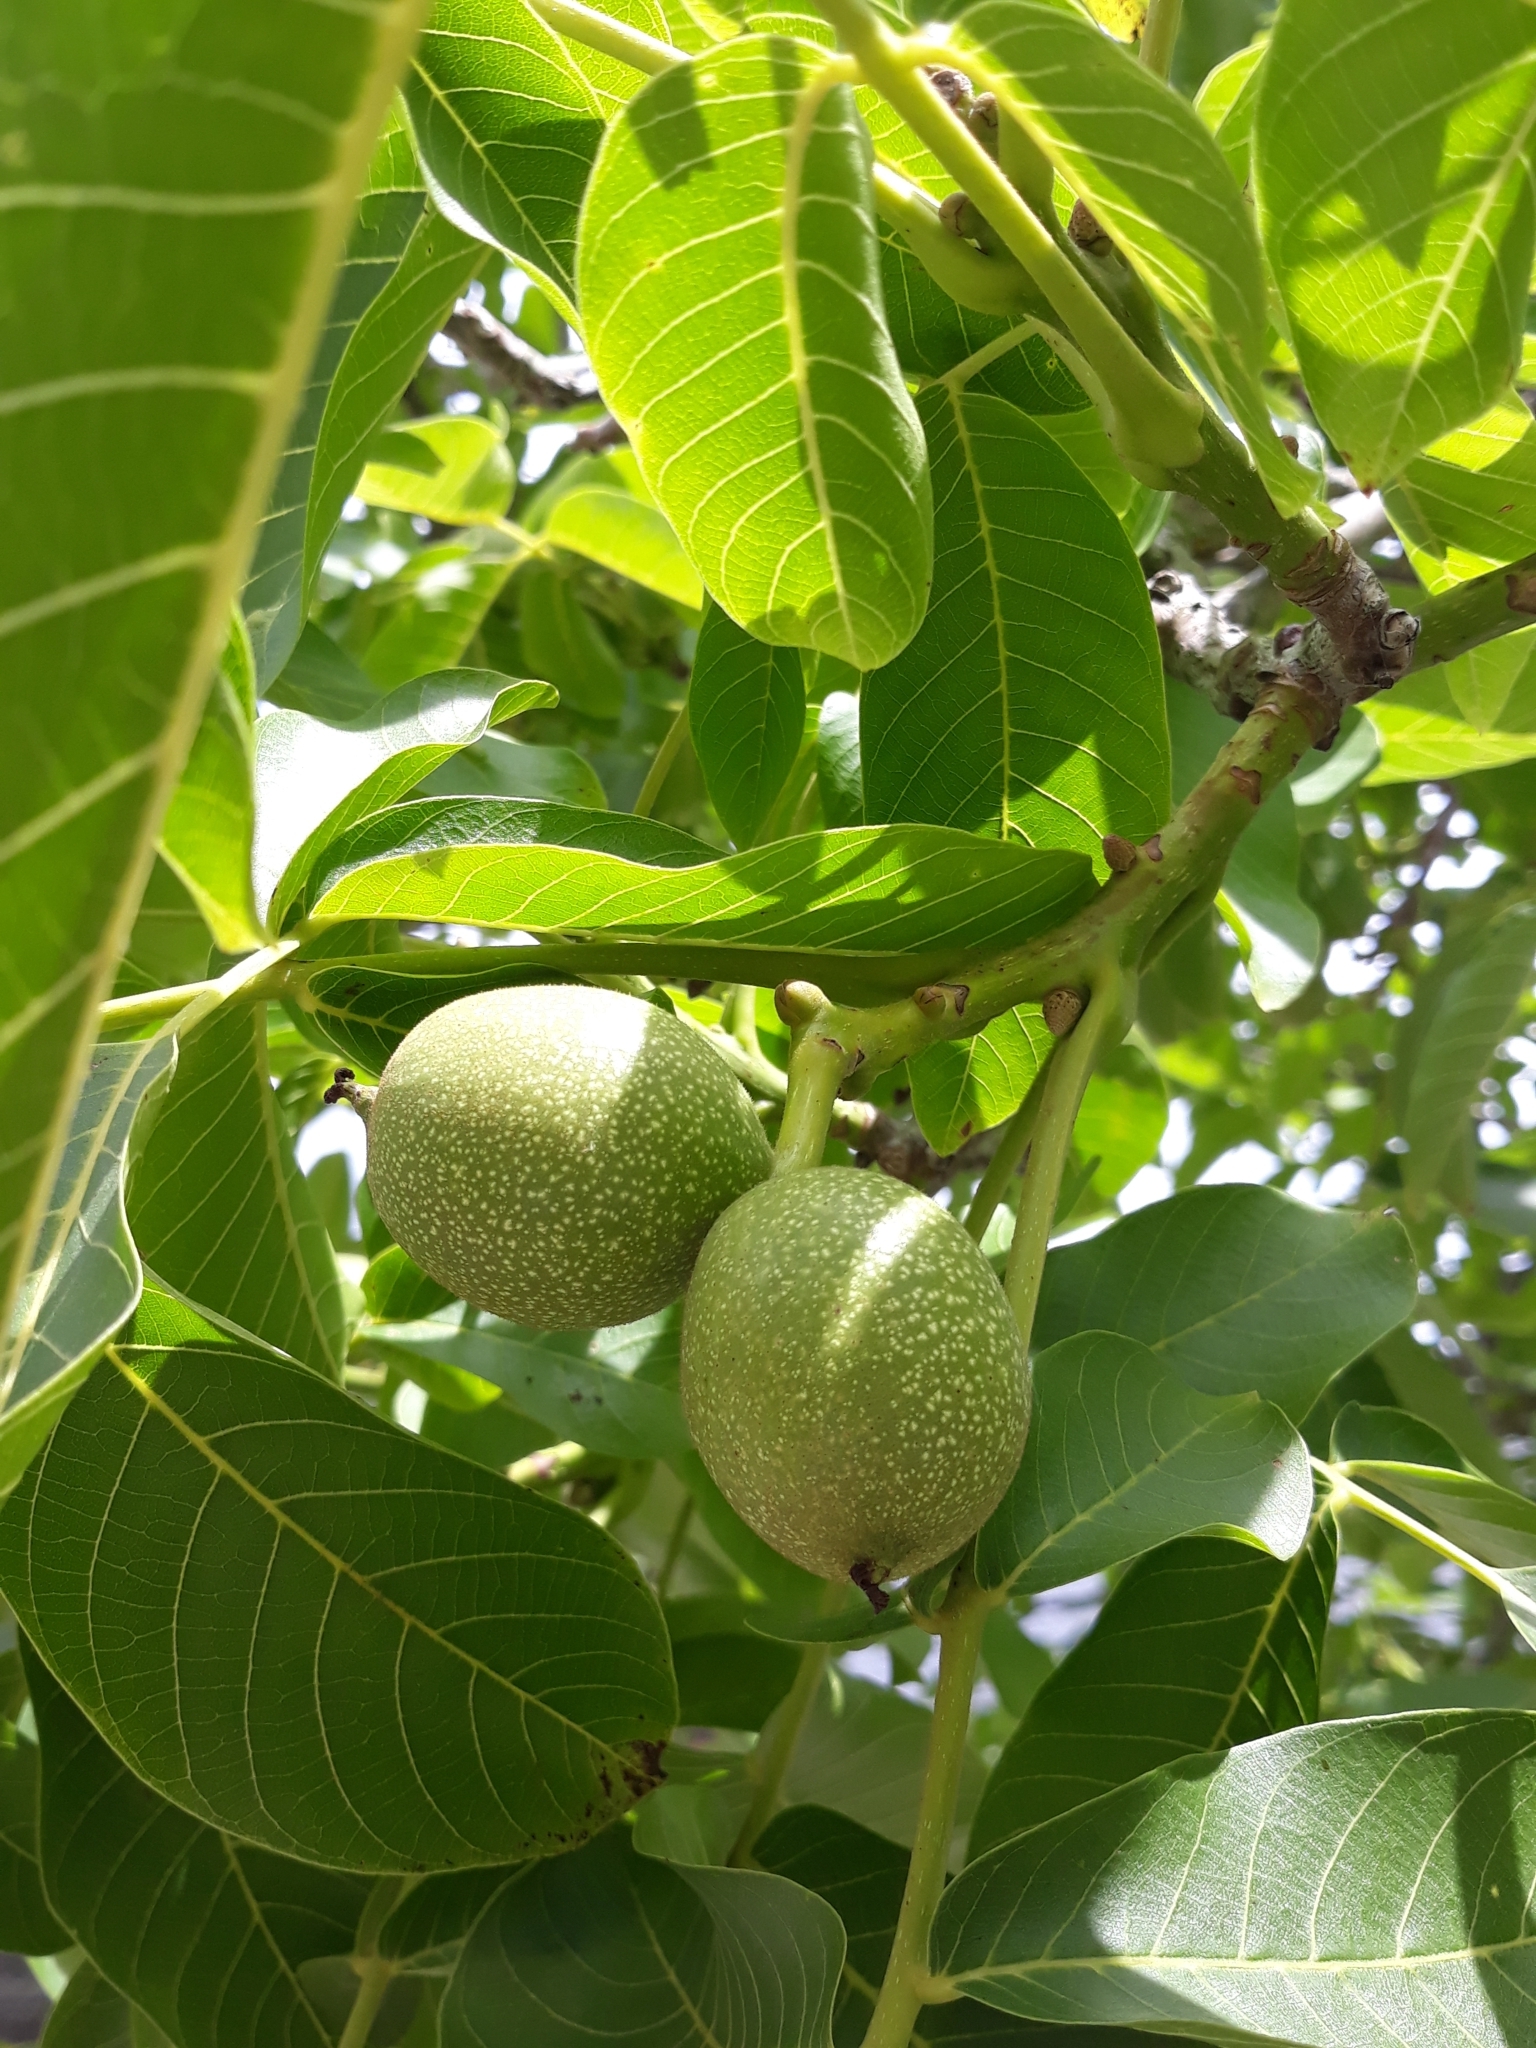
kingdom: Plantae
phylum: Tracheophyta
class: Magnoliopsida
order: Fagales
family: Juglandaceae
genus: Juglans
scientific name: Juglans regia
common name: Walnut
